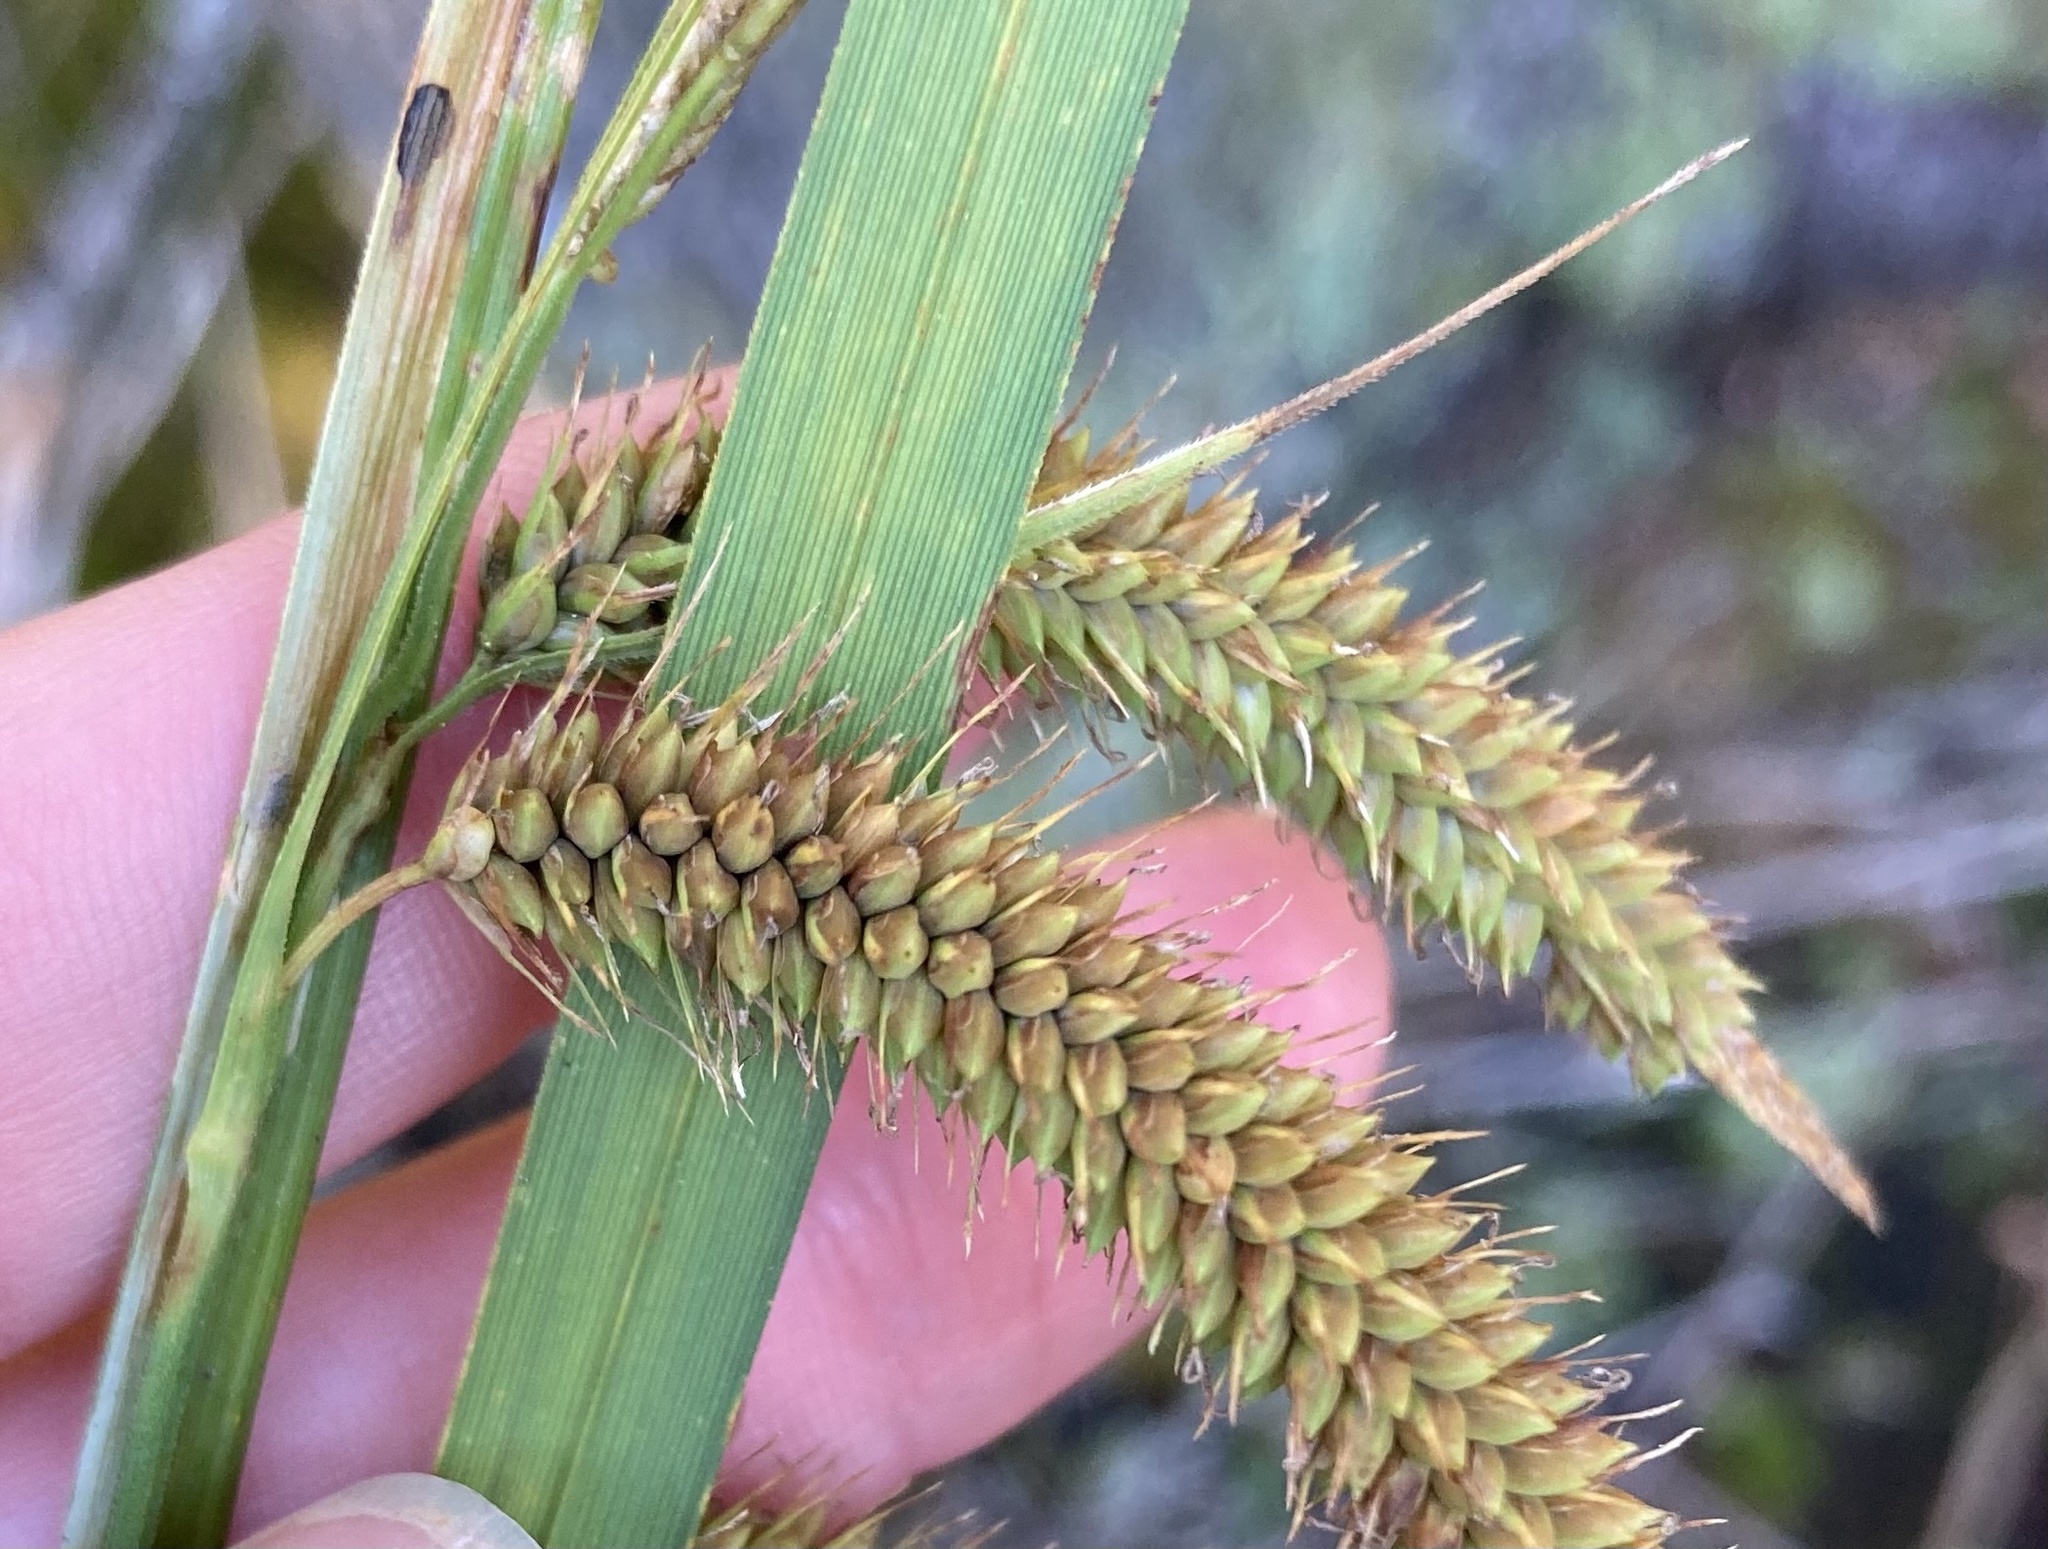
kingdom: Plantae
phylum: Tracheophyta
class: Liliopsida
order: Poales
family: Cyperaceae
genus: Carex
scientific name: Carex gynandra
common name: Nodding sedge
